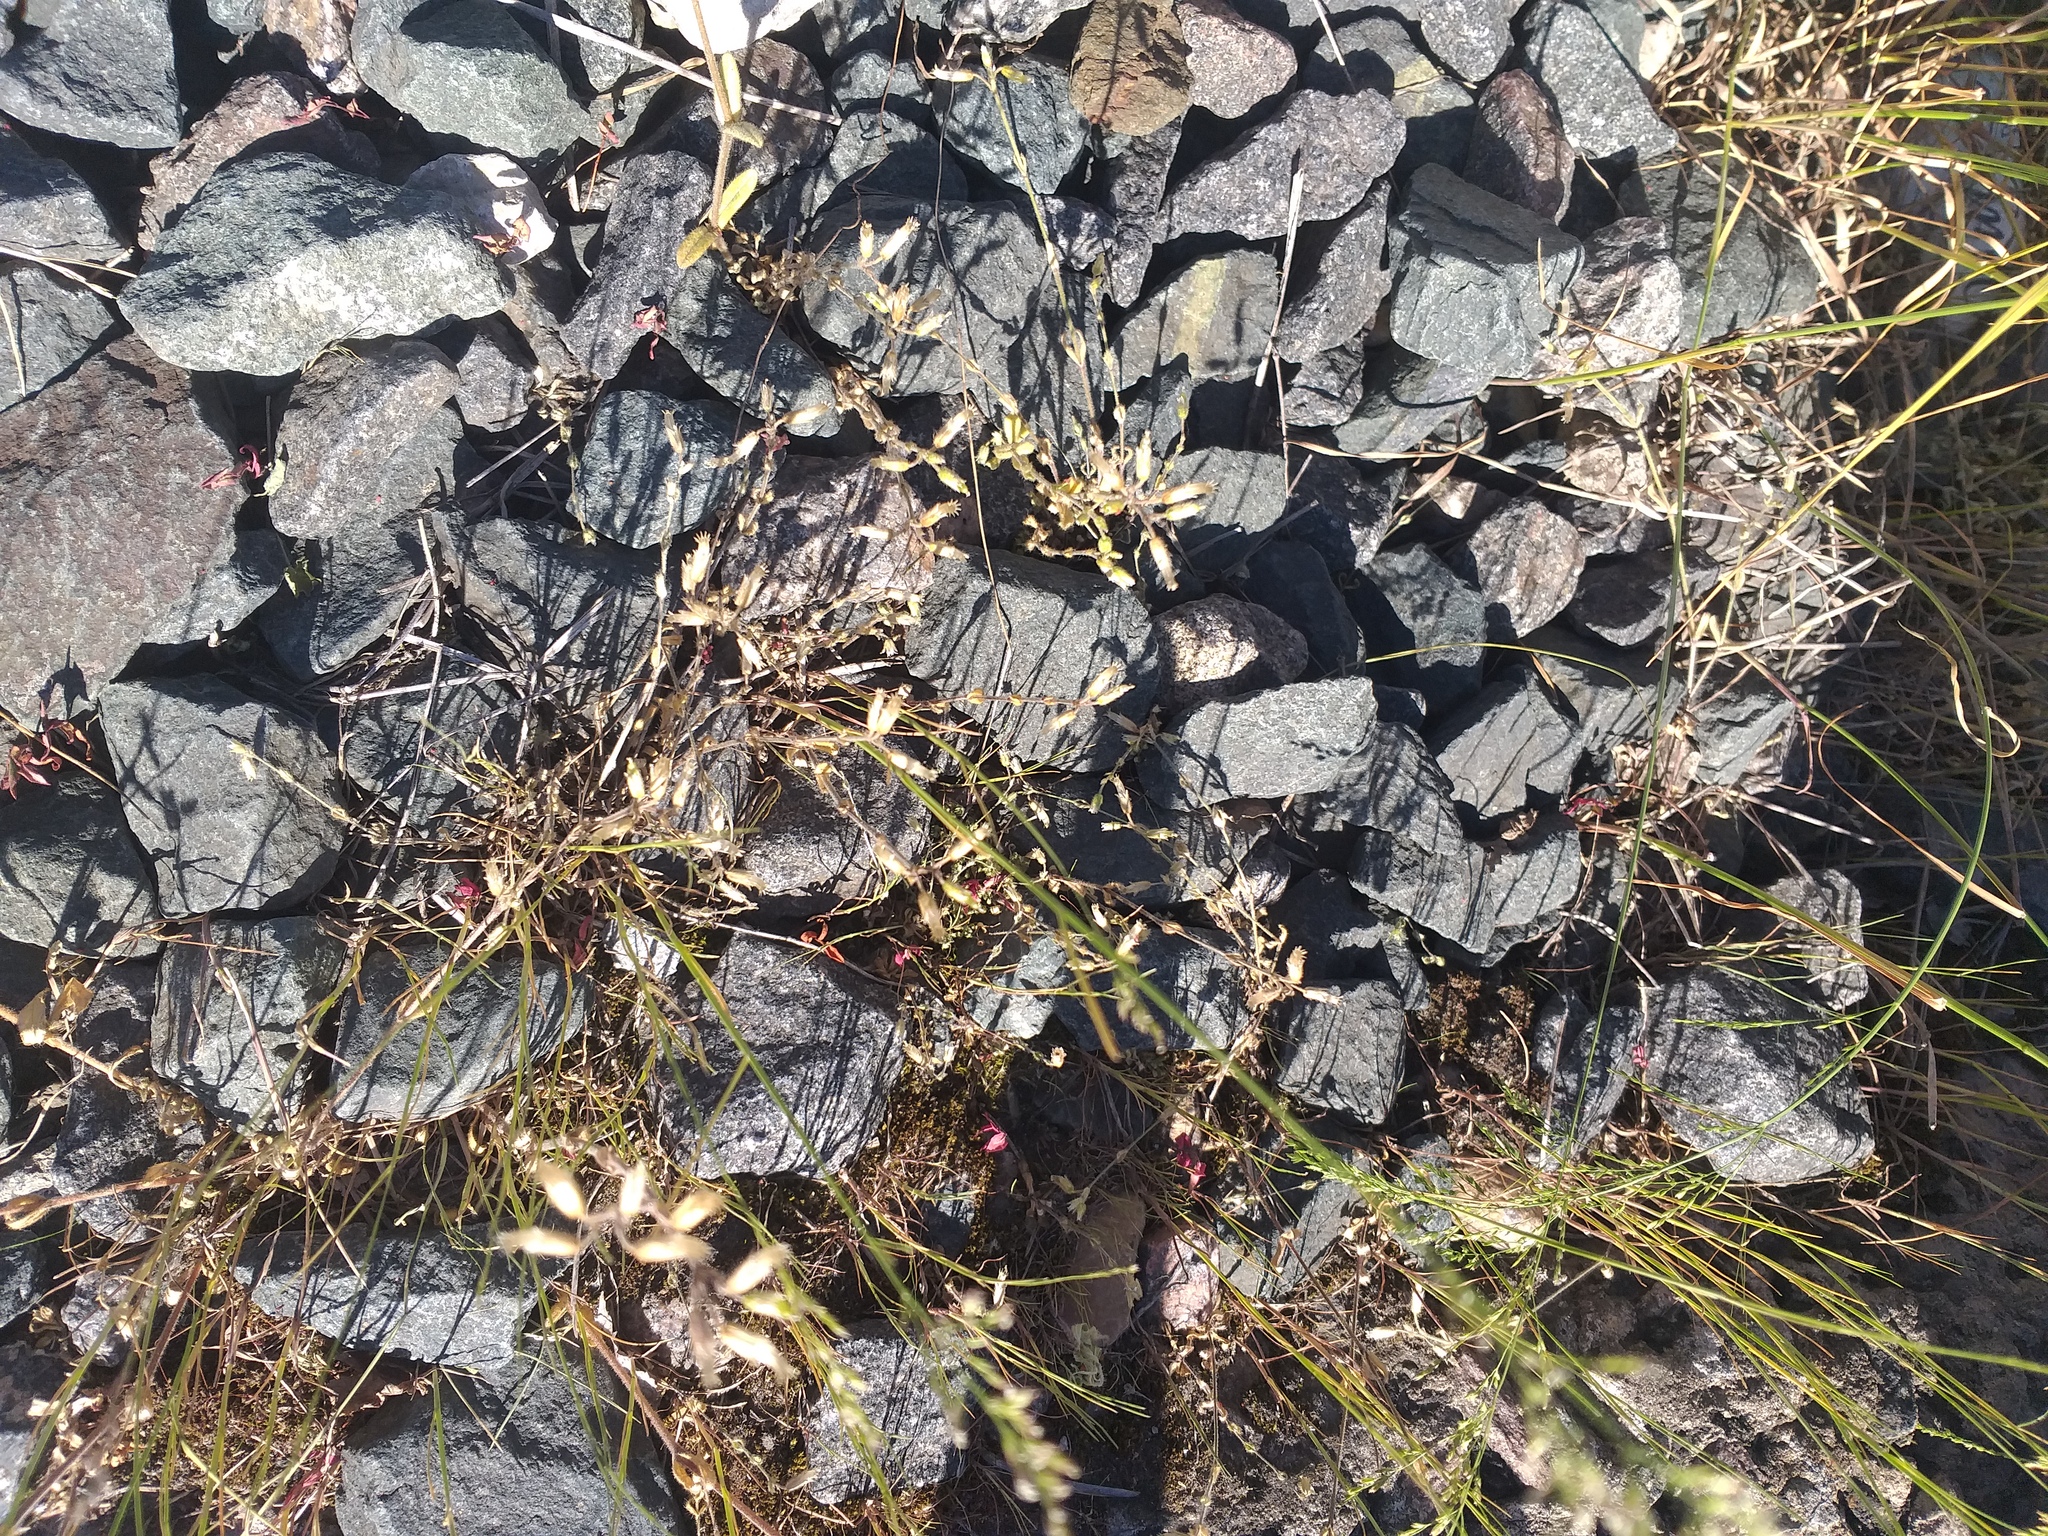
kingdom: Plantae
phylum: Tracheophyta
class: Magnoliopsida
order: Caryophyllales
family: Caryophyllaceae
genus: Cerastium
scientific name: Cerastium holosteoides
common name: Big chickweed
